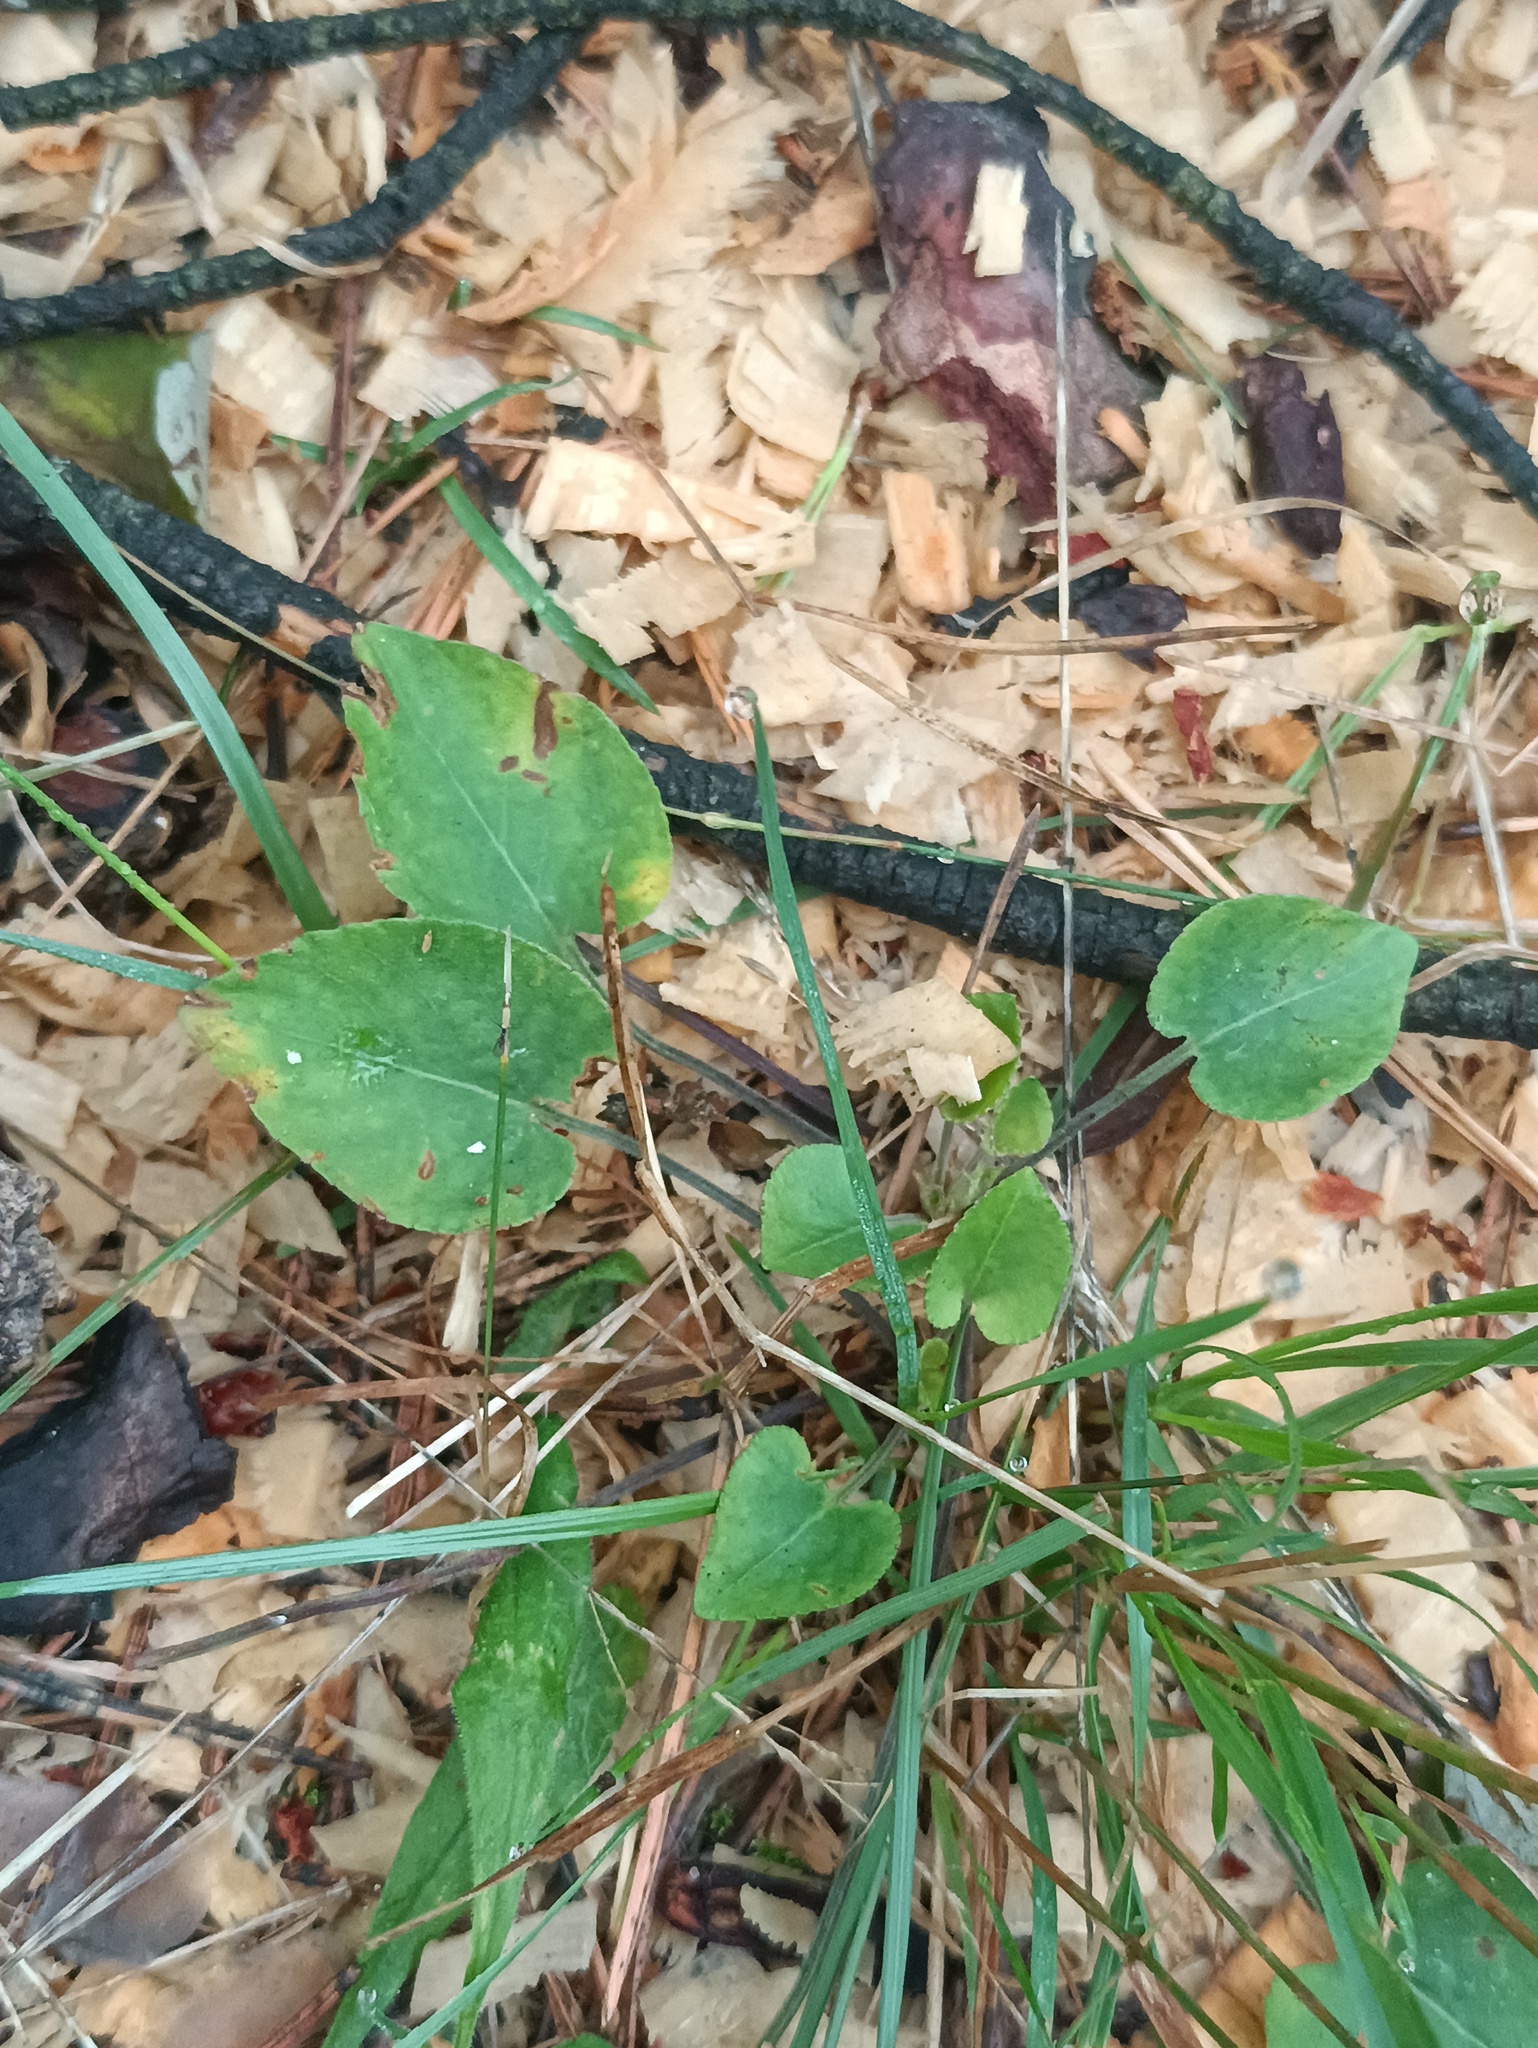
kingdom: Plantae
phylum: Tracheophyta
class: Magnoliopsida
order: Malpighiales
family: Violaceae
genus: Viola
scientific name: Viola rupestris
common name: Teesdale violet
